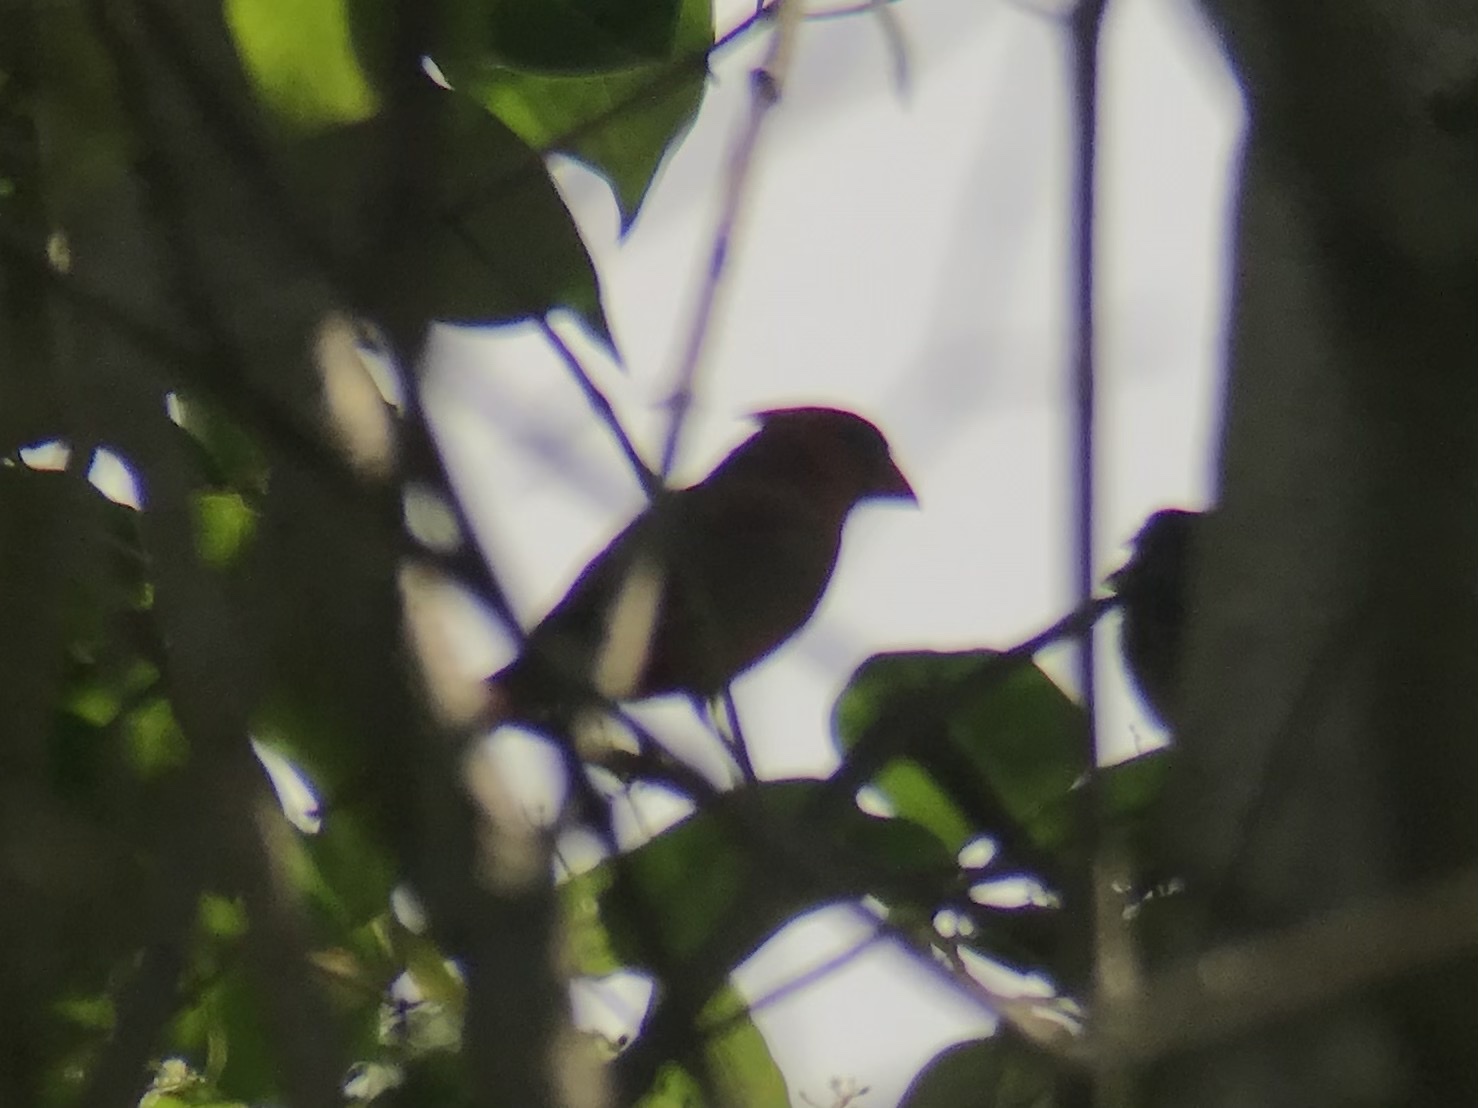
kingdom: Animalia
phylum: Chordata
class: Aves
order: Passeriformes
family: Cardinalidae
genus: Cardinalis
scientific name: Cardinalis cardinalis
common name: Northern cardinal
